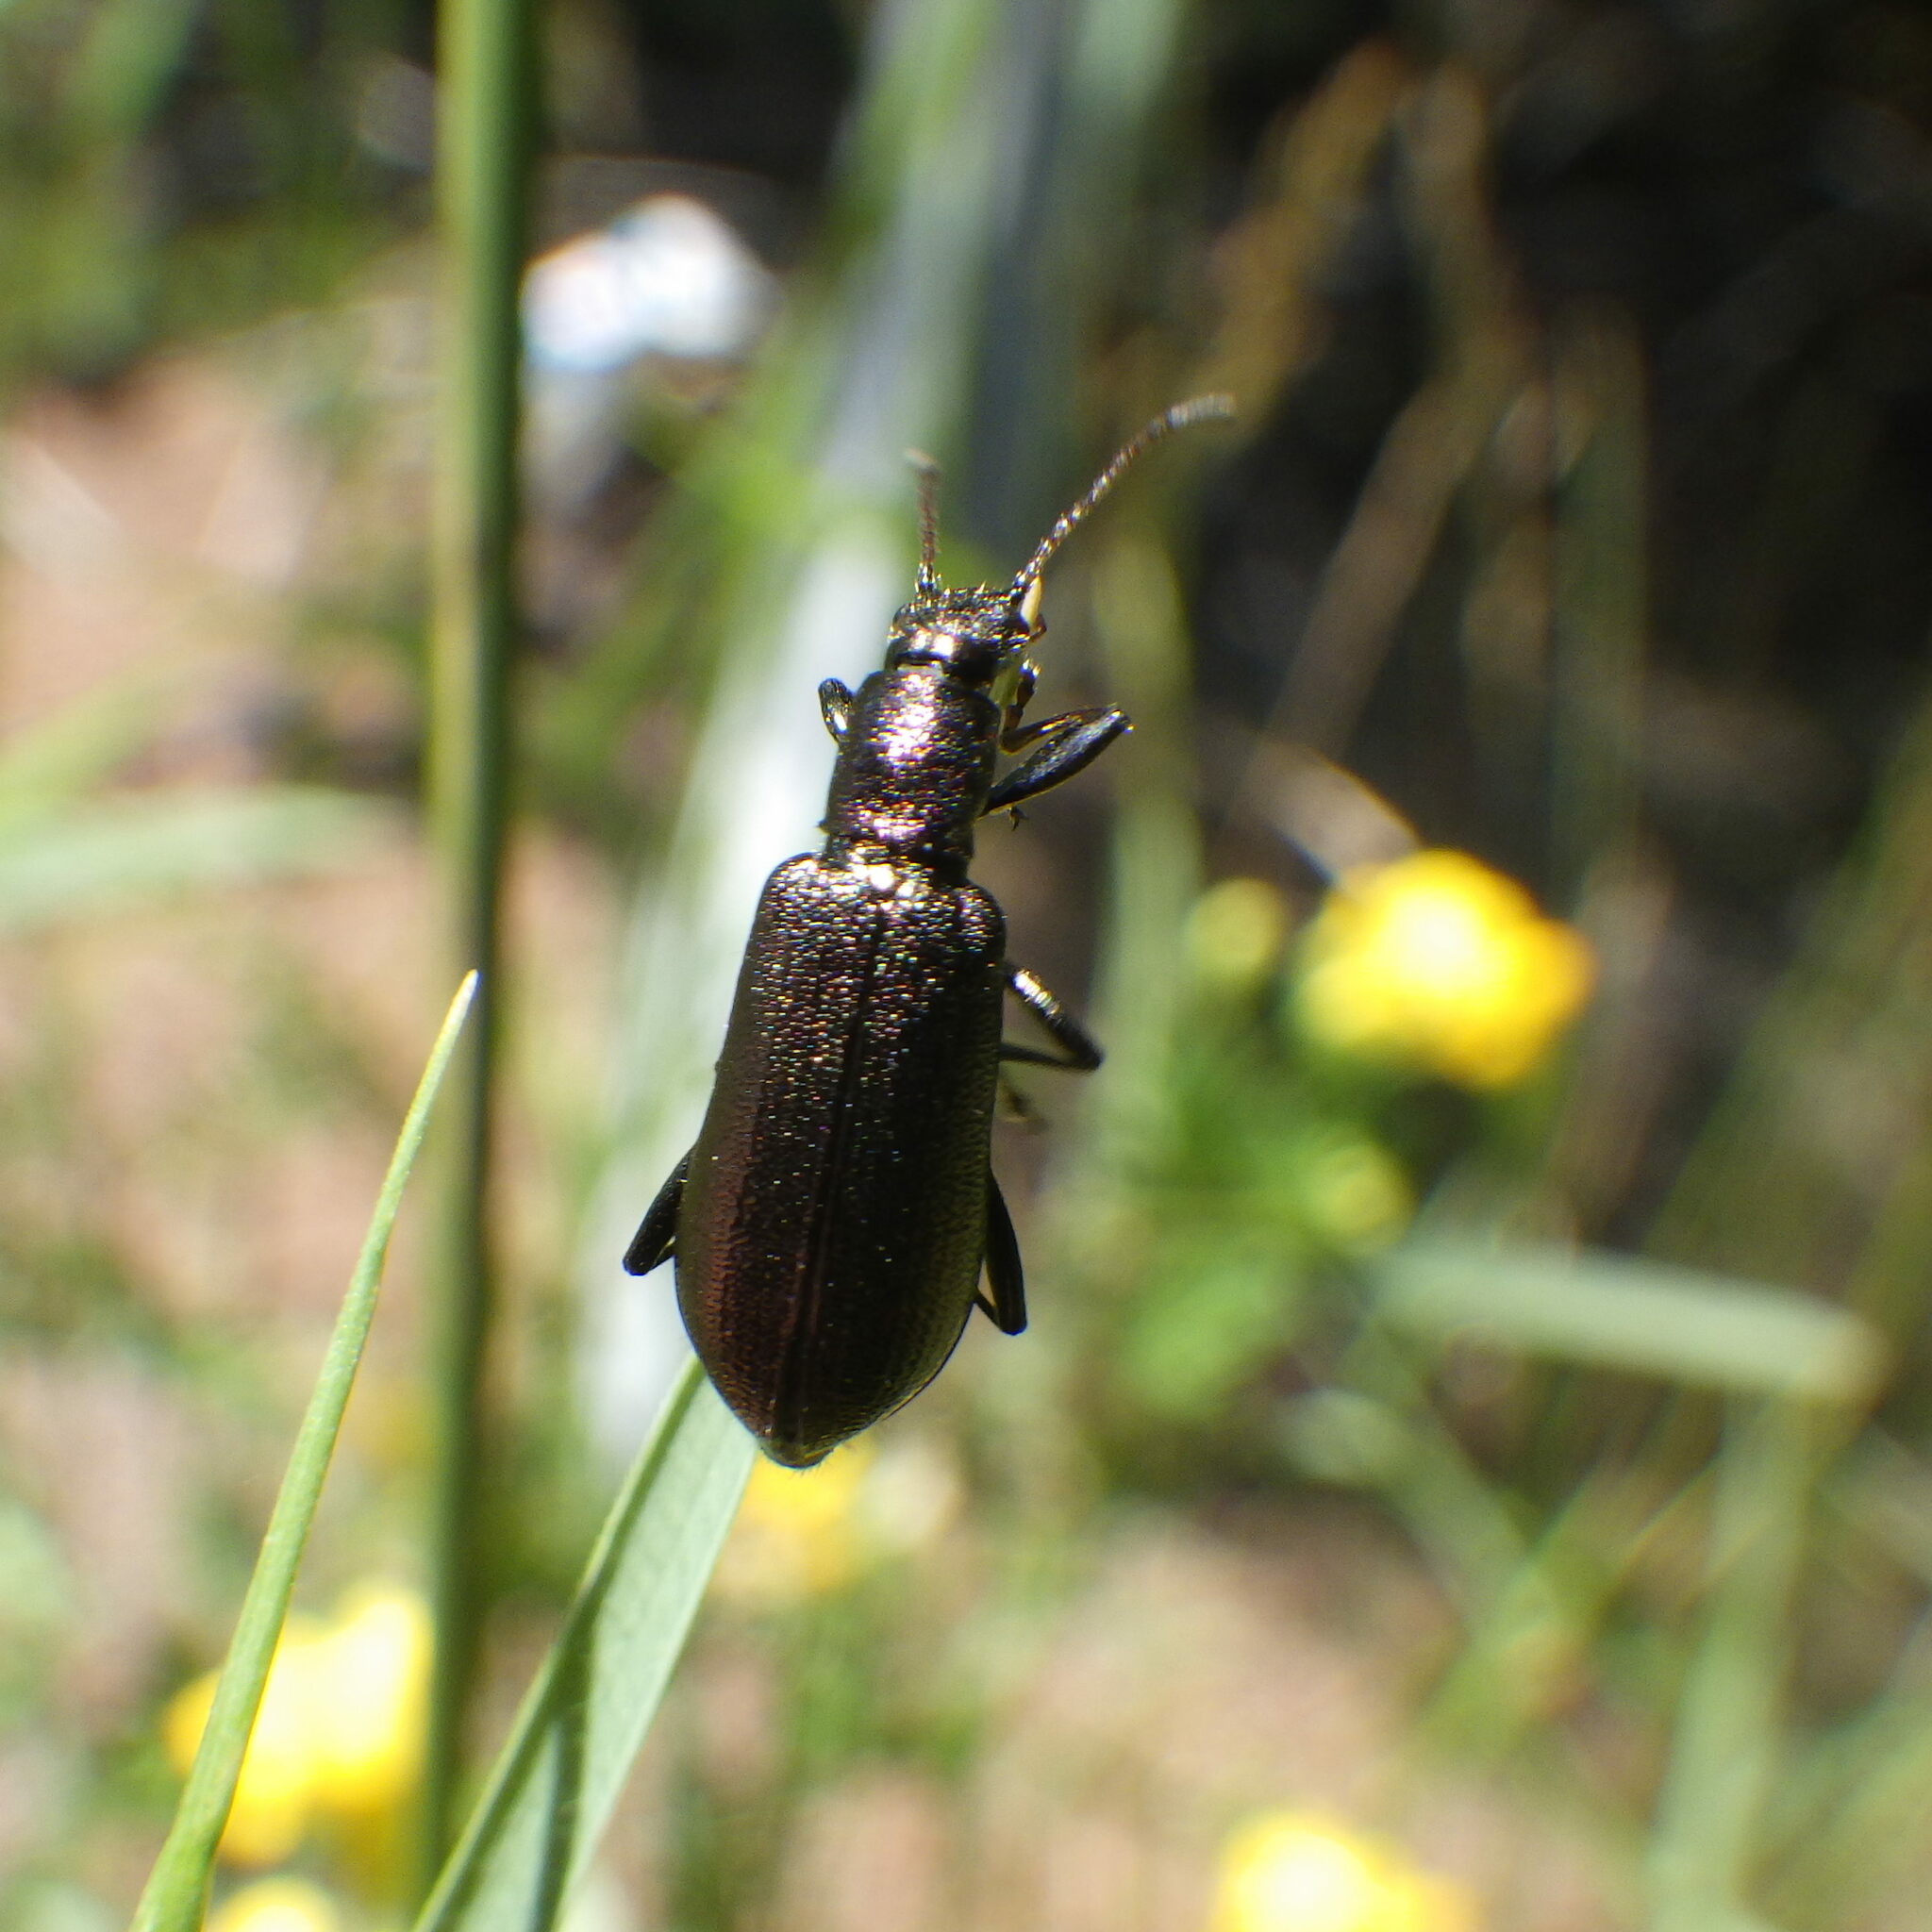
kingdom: Animalia
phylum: Arthropoda
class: Insecta
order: Coleoptera
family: Tenebrionidae
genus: Arthromacra
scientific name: Arthromacra aenea
